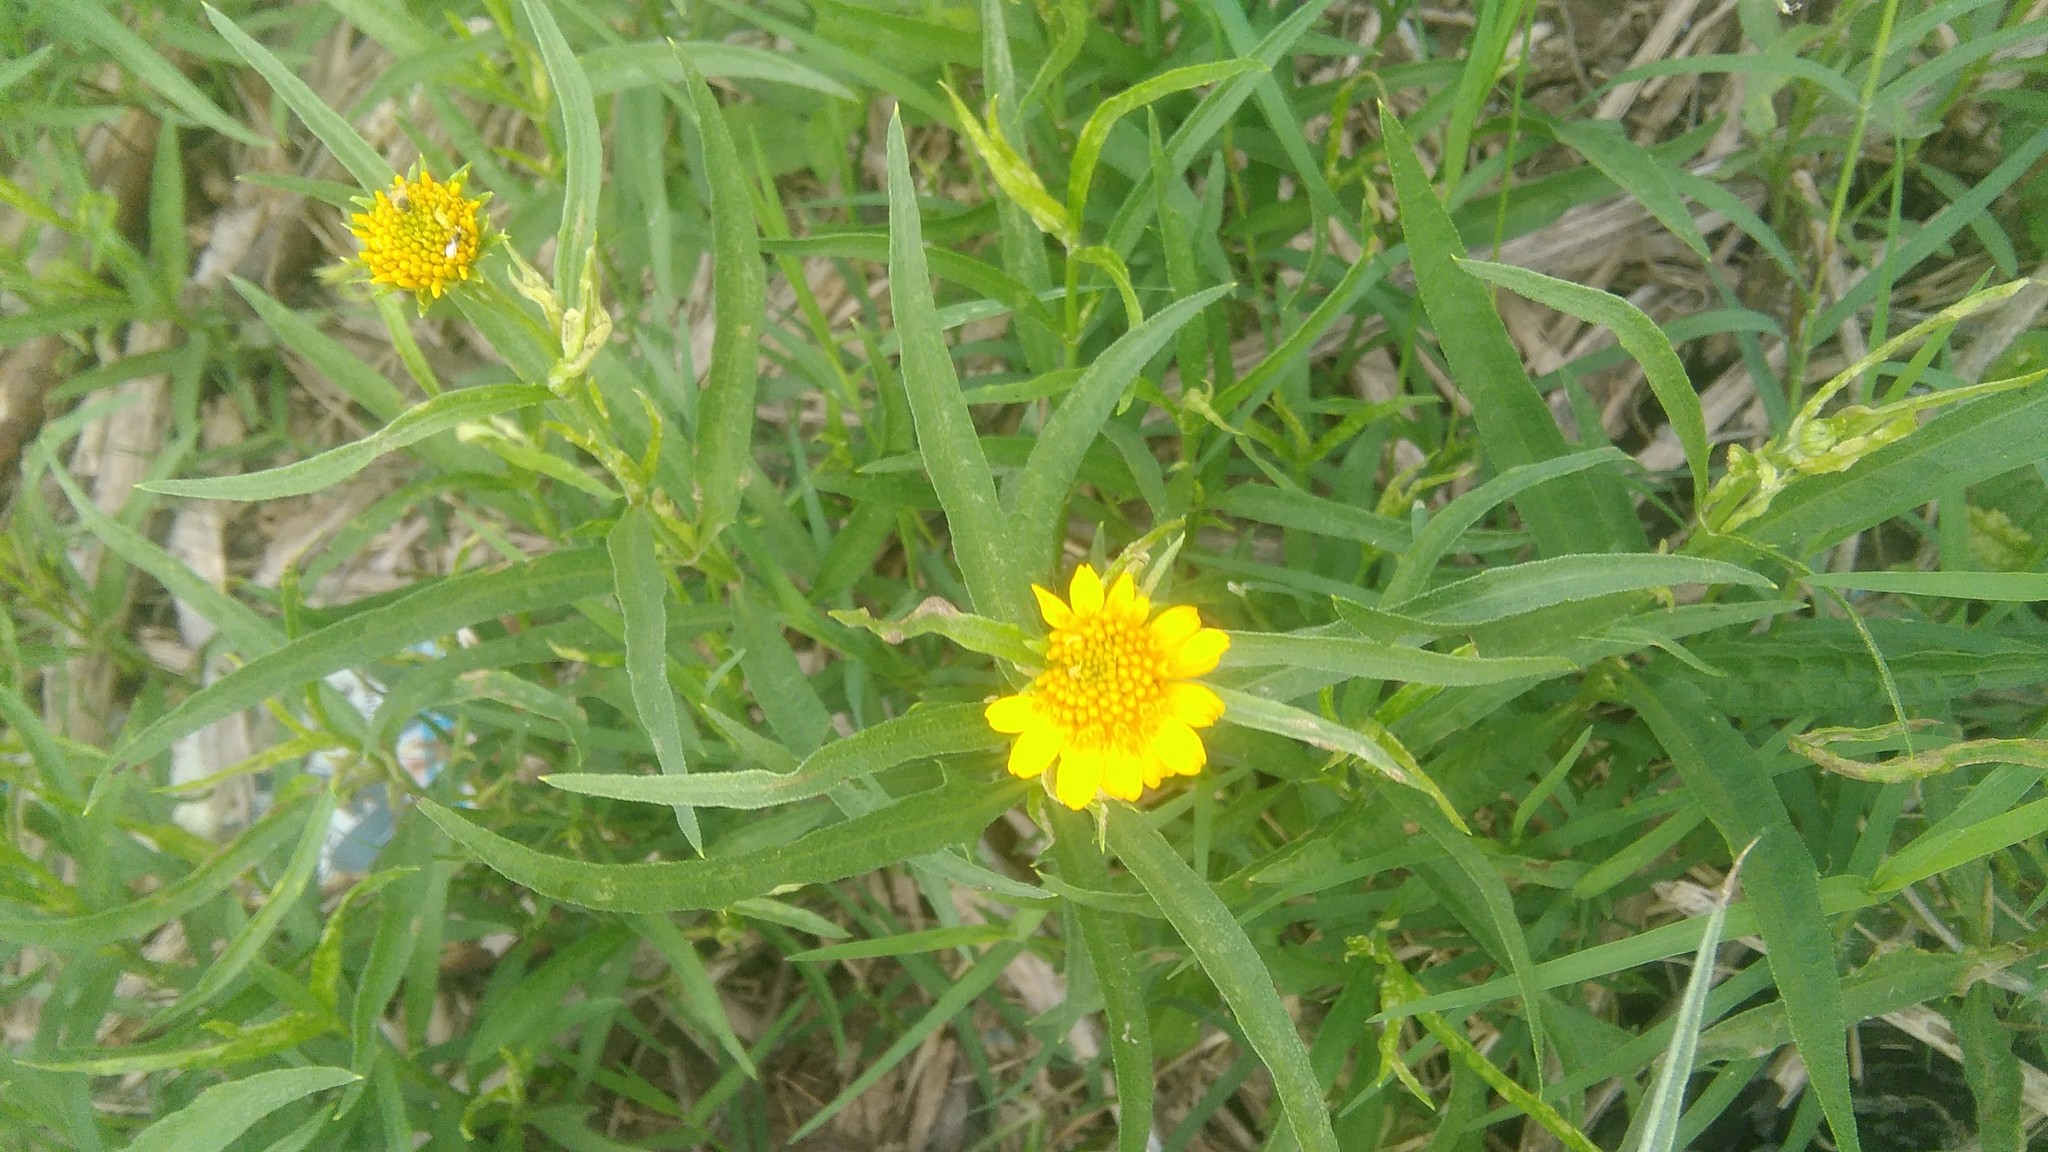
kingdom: Plantae
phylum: Tracheophyta
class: Magnoliopsida
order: Asterales
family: Asteraceae
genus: Pascalia
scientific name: Pascalia glauca
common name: Beach creeping oxeye
